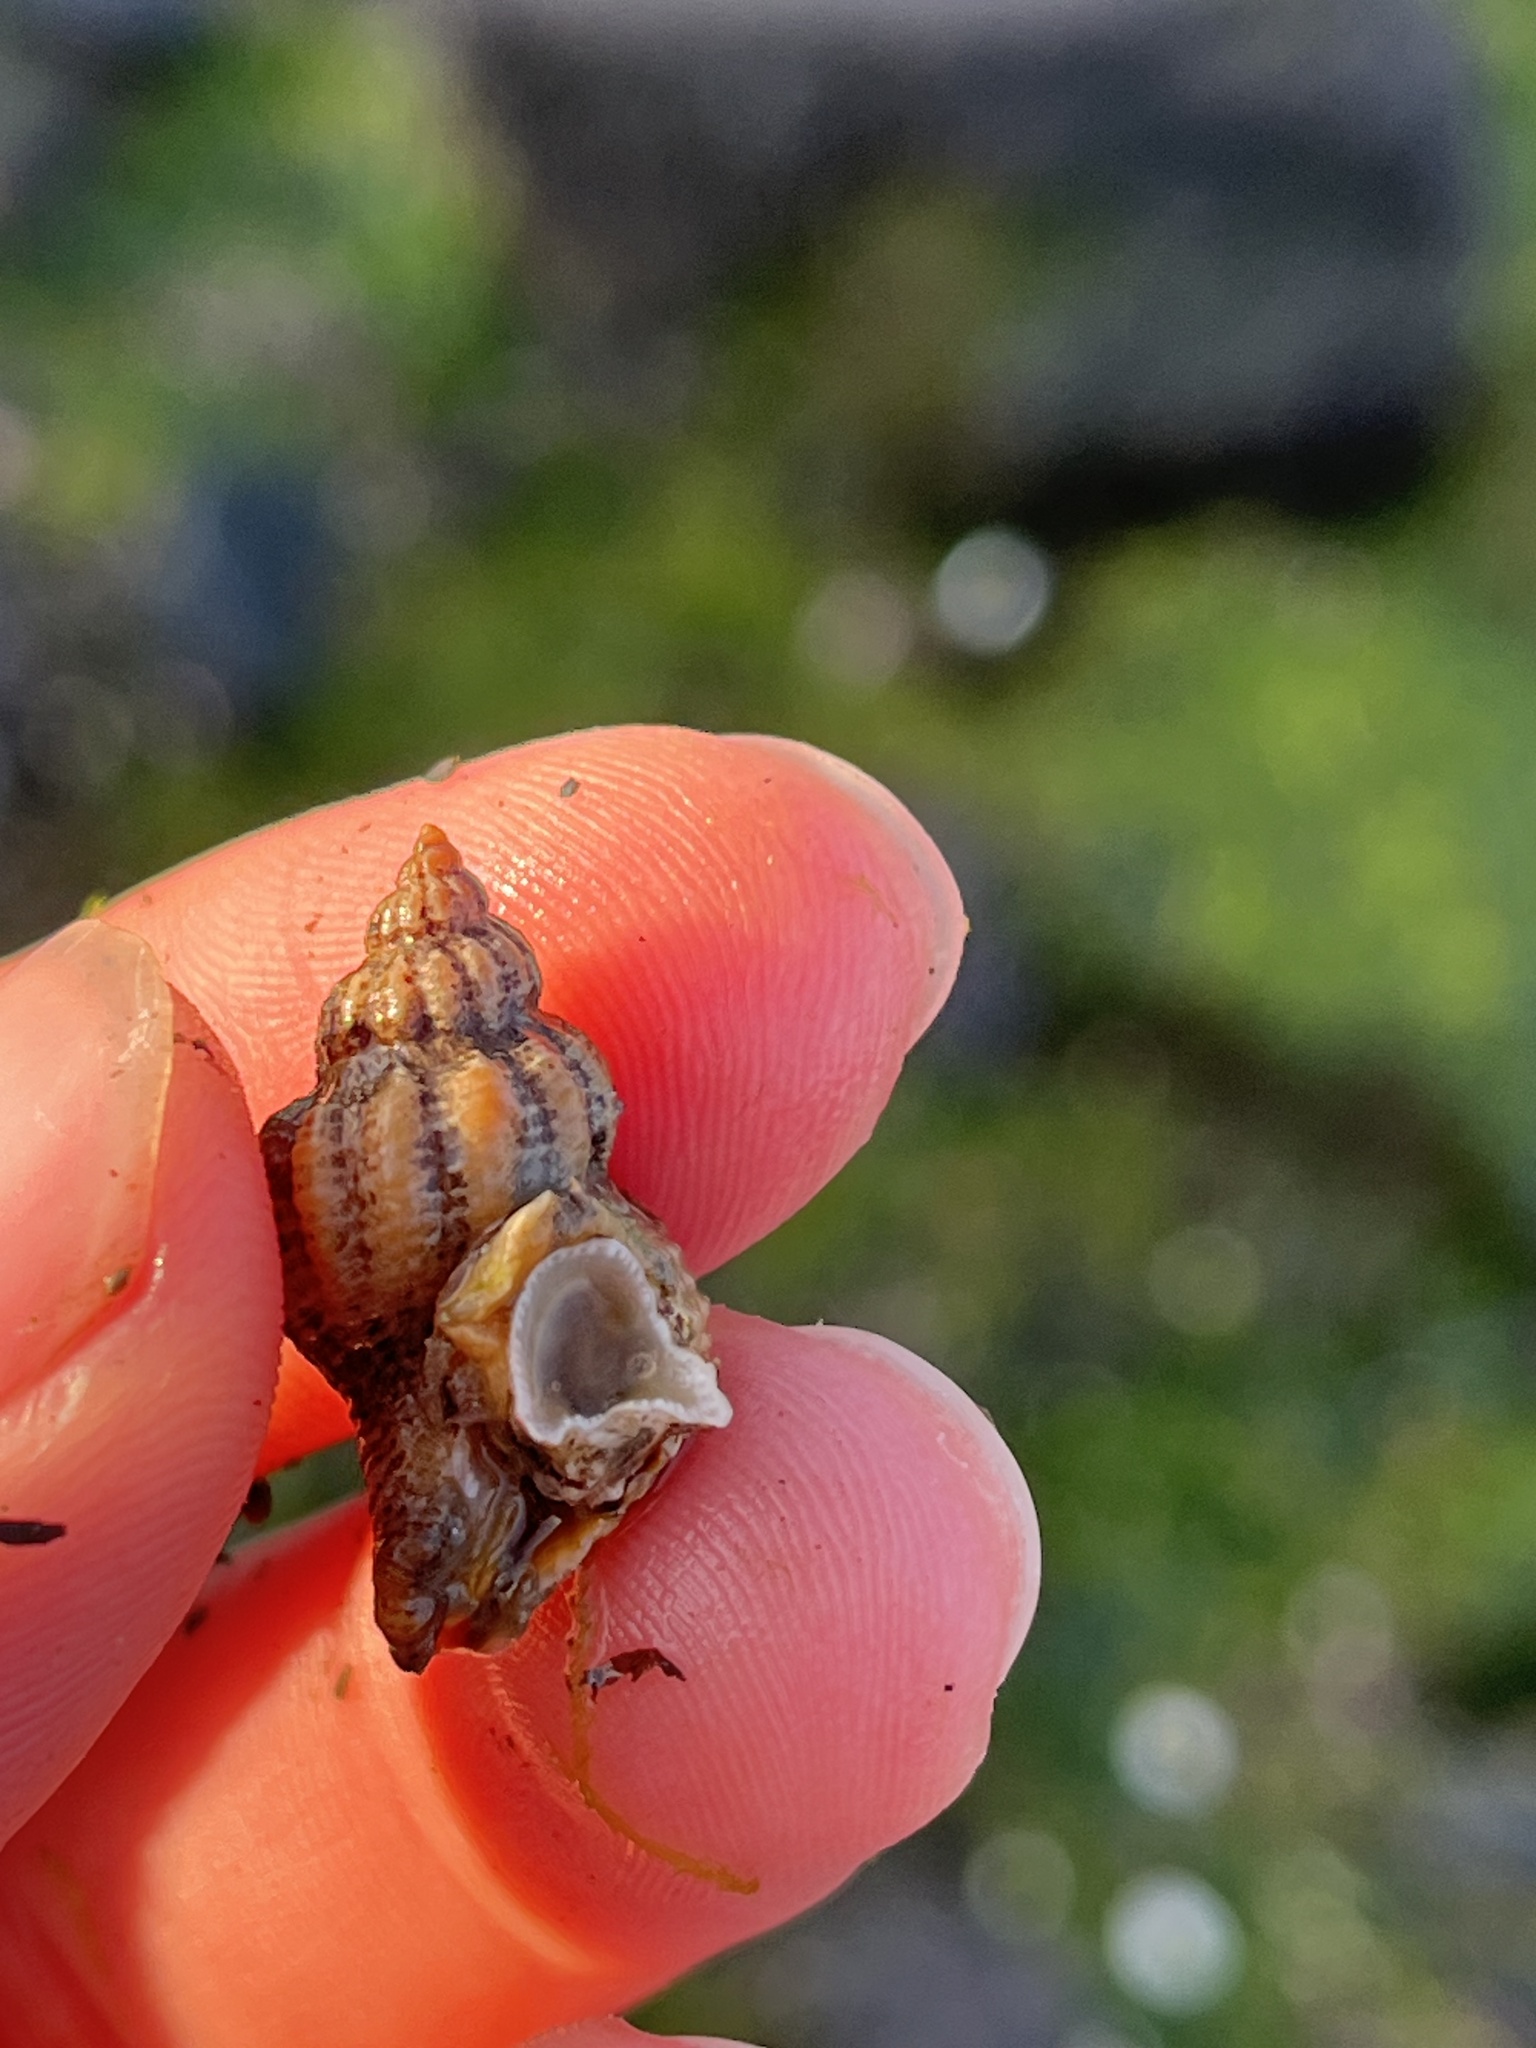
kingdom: Animalia
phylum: Mollusca
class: Gastropoda
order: Neogastropoda
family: Muricidae
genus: Urosalpinx
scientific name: Urosalpinx cinerea
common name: American sting winkle
